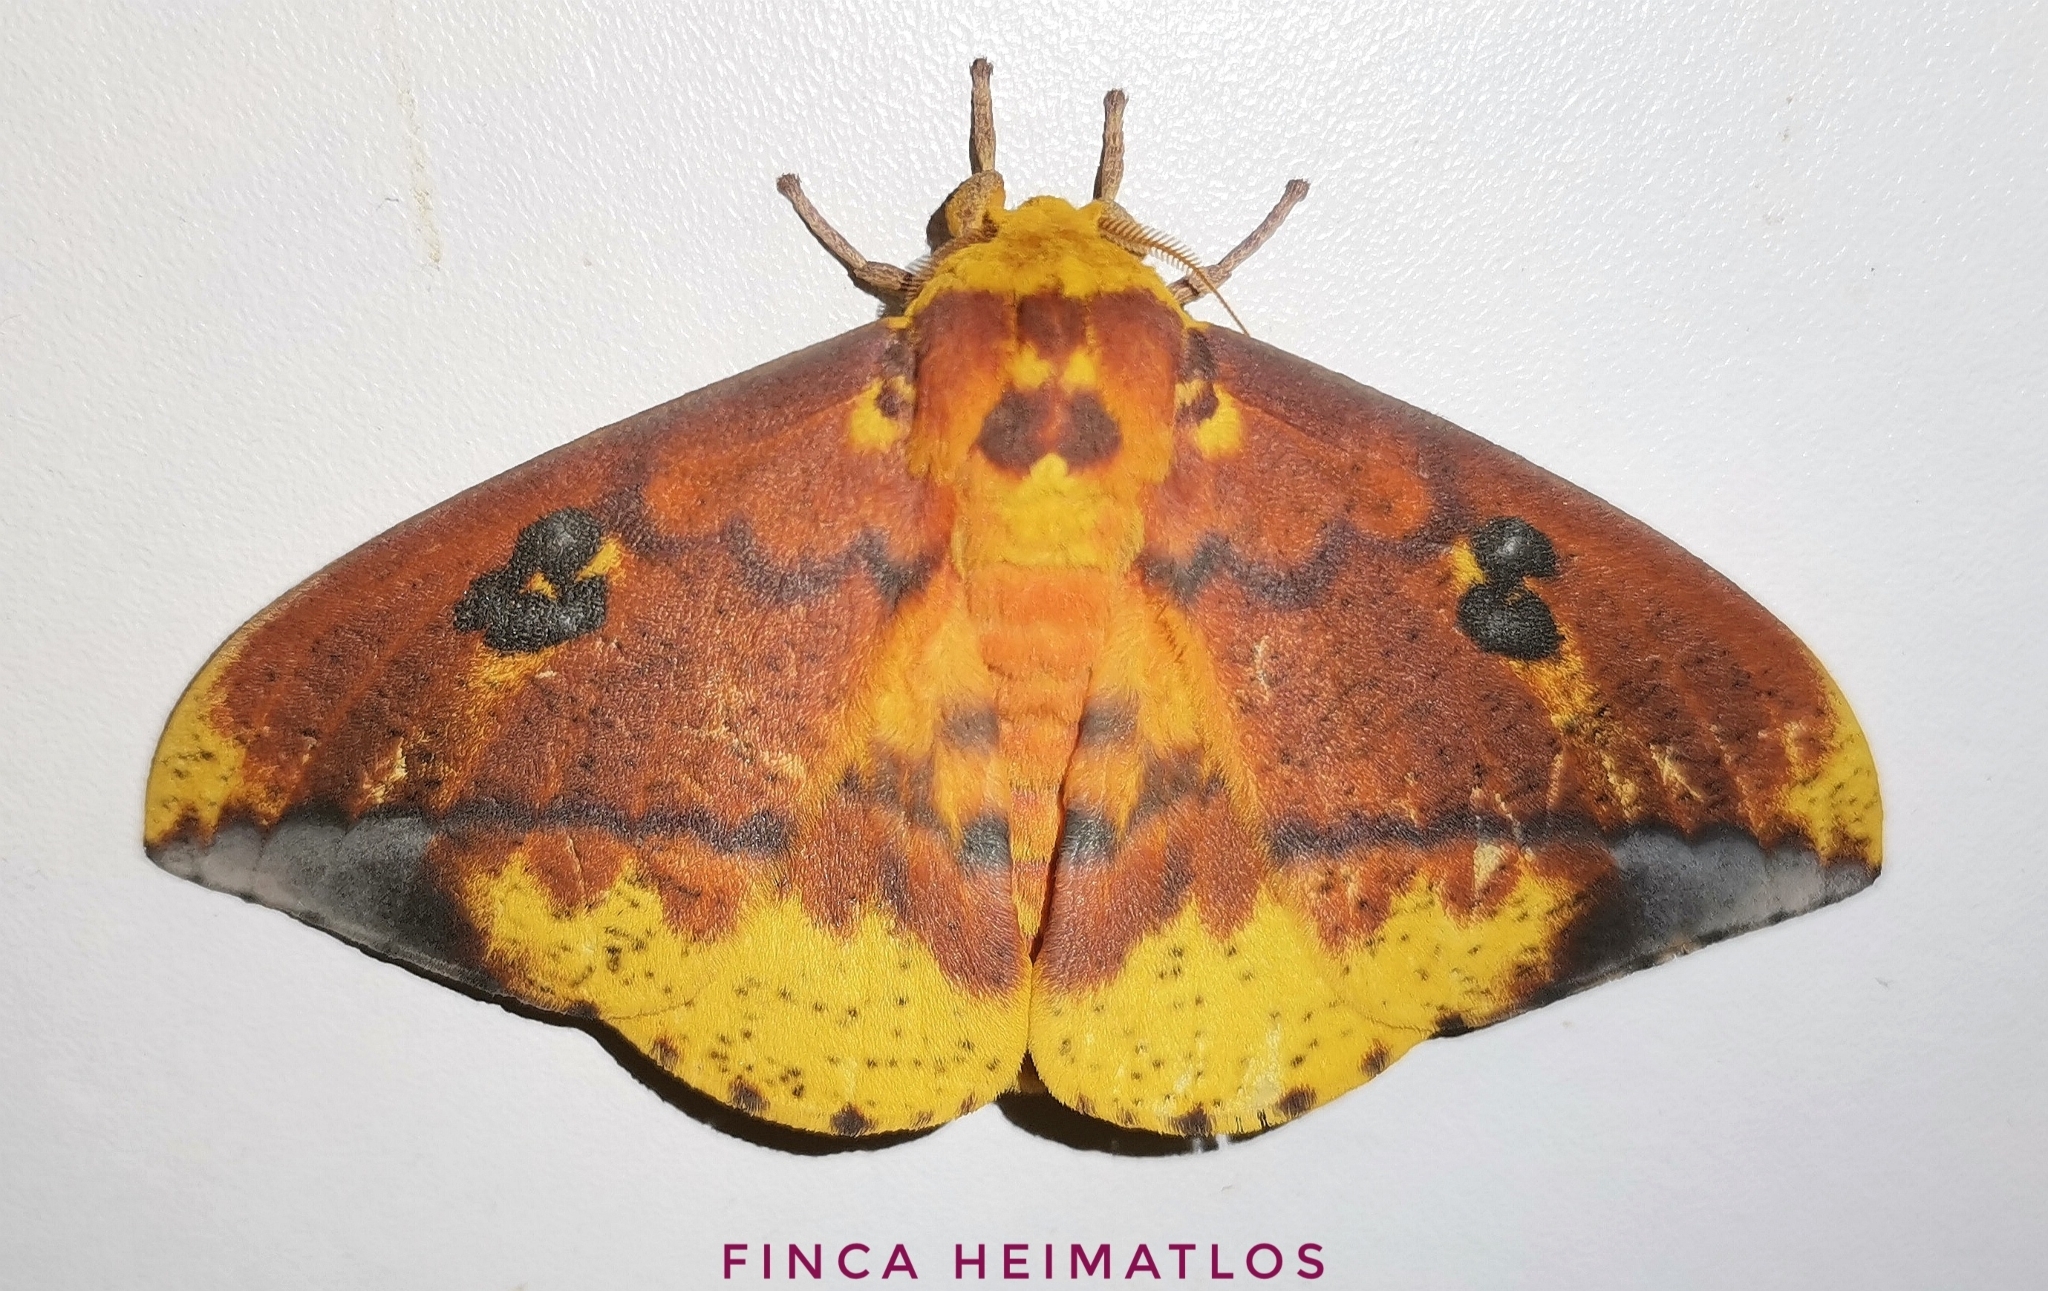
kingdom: Animalia
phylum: Arthropoda
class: Insecta
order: Lepidoptera
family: Saturniidae
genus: Eacles
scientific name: Eacles ormondei
